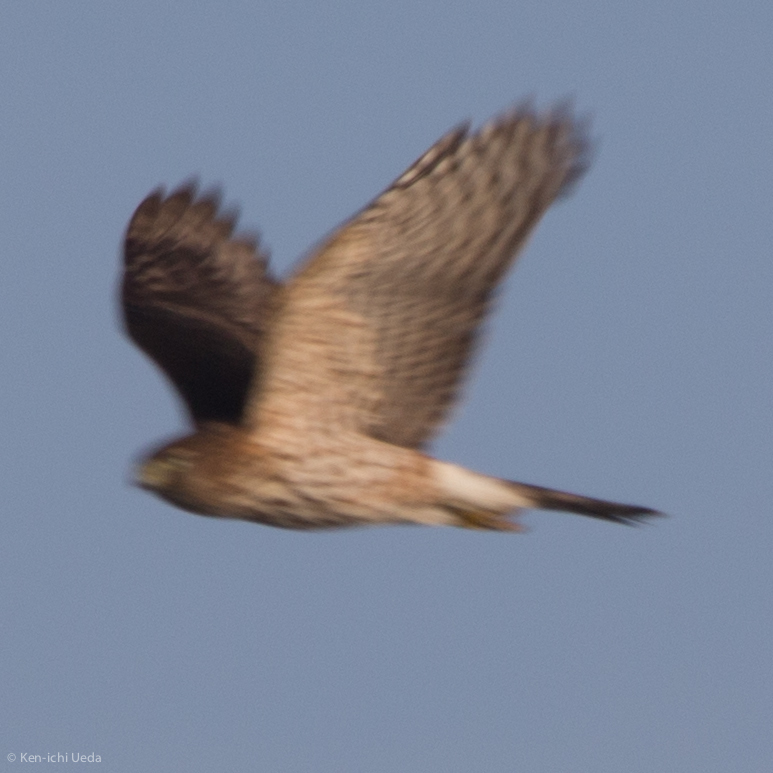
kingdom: Animalia
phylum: Chordata
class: Aves
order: Accipitriformes
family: Accipitridae
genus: Circus
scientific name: Circus cyaneus
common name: Hen harrier
